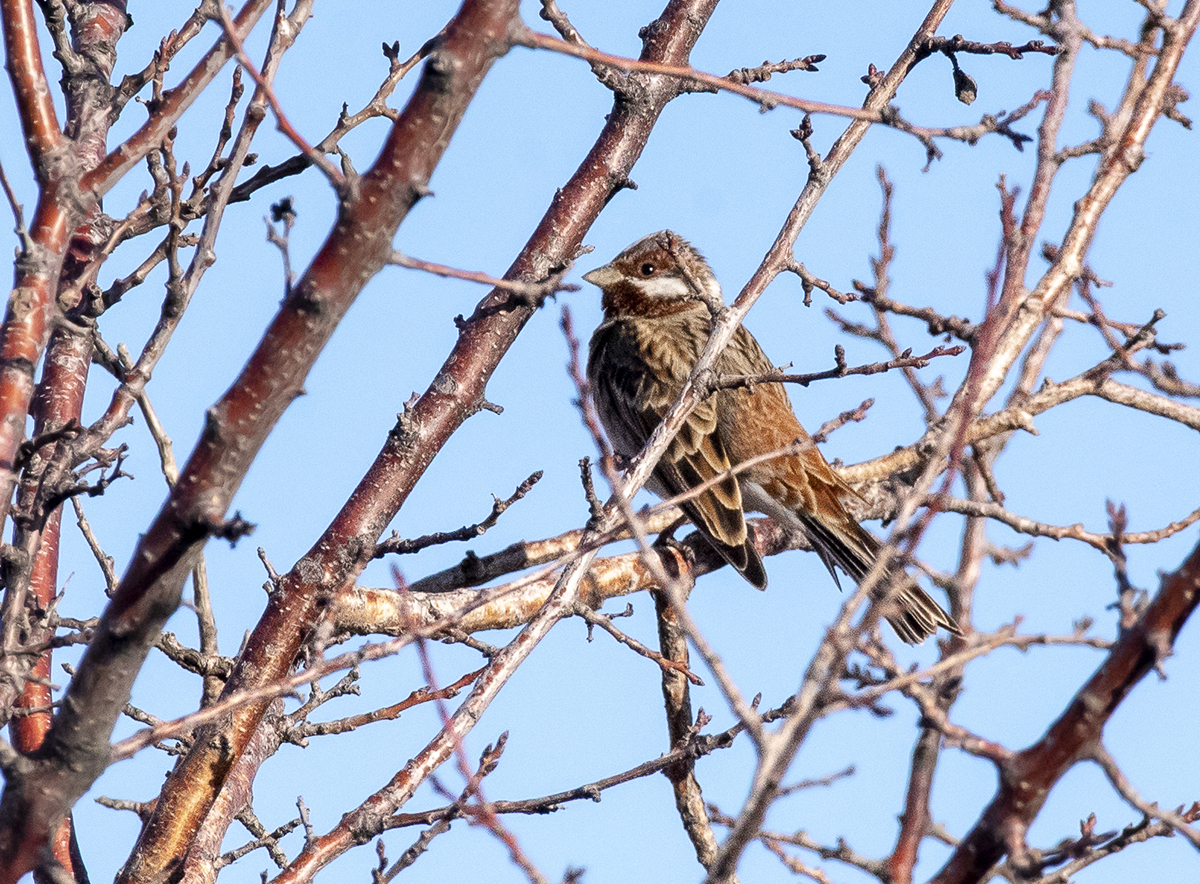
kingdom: Animalia
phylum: Chordata
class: Aves
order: Passeriformes
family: Emberizidae
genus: Emberiza
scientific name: Emberiza leucocephalos
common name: Pine bunting
